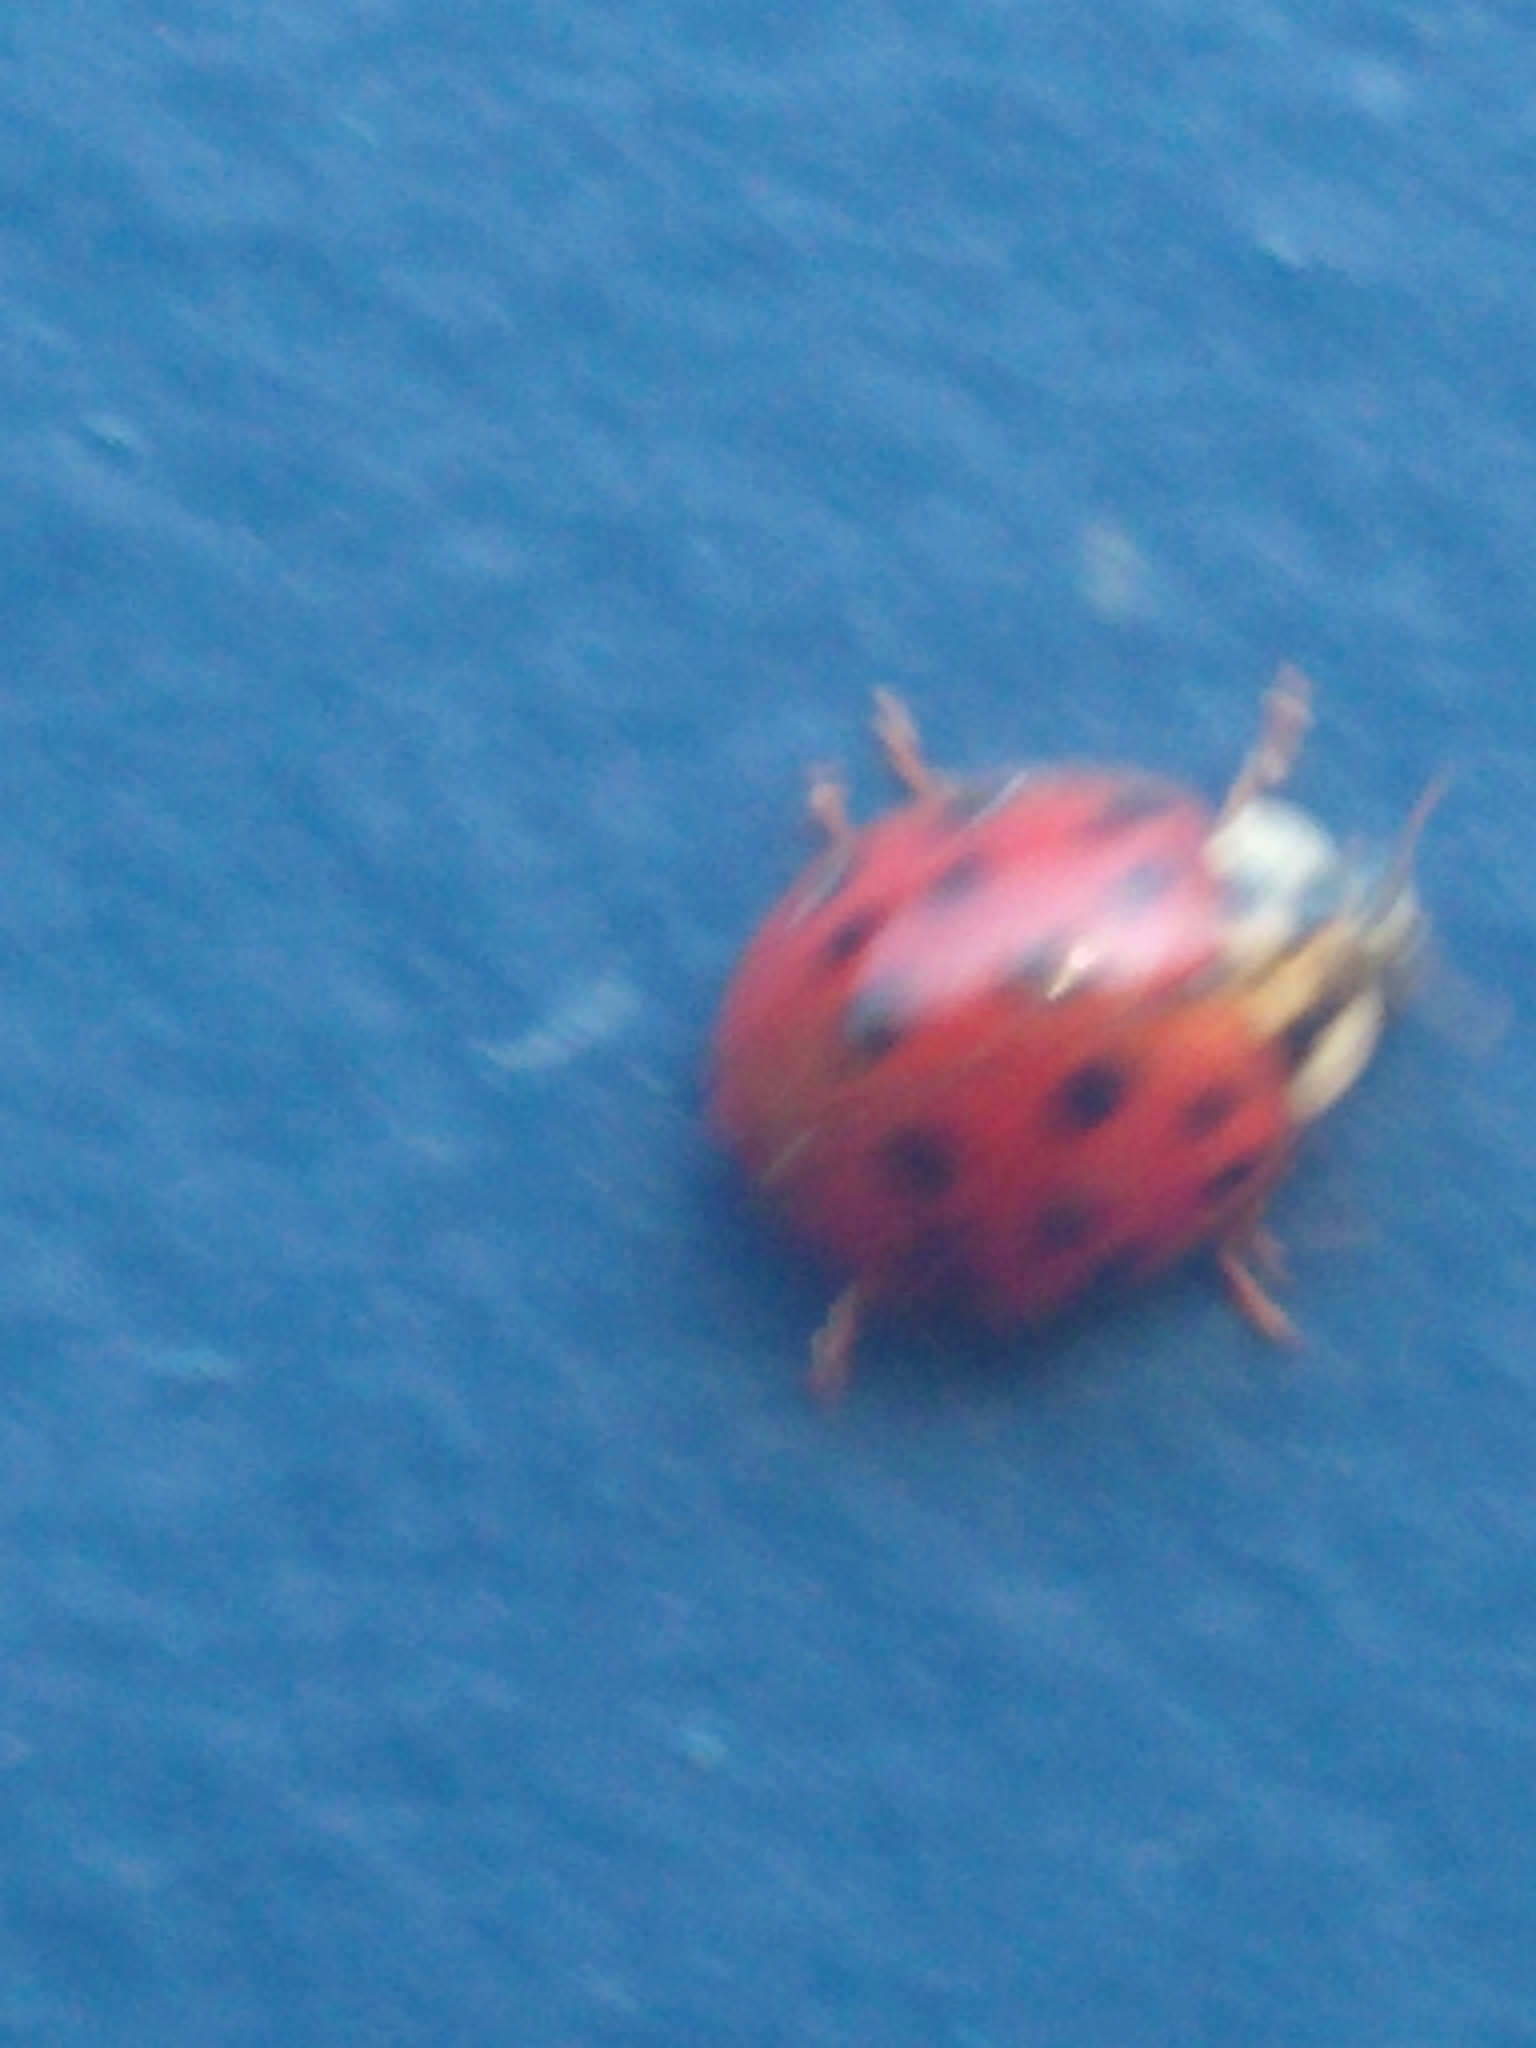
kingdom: Animalia
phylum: Arthropoda
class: Insecta
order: Coleoptera
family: Coccinellidae
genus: Harmonia
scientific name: Harmonia axyridis
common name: Harlequin ladybird
